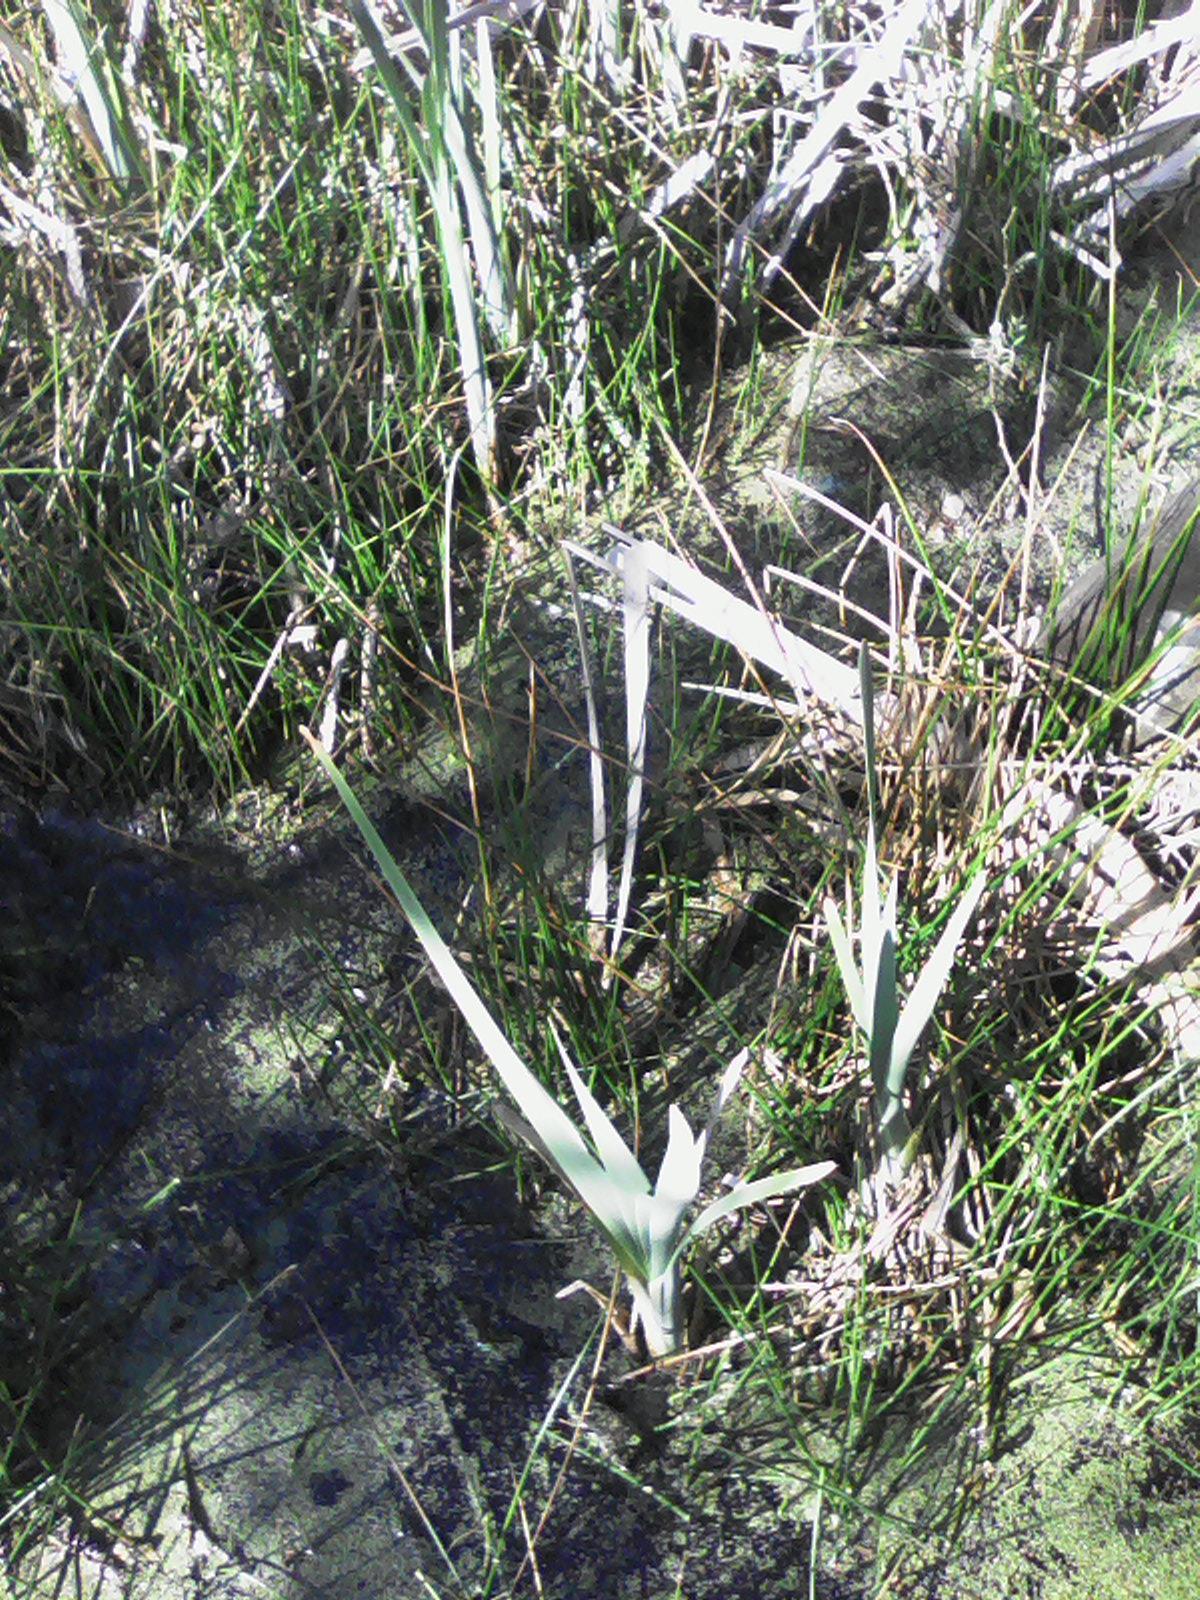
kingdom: Plantae
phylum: Tracheophyta
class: Liliopsida
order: Poales
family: Typhaceae
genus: Typha
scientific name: Typha latifolia
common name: Broadleaf cattail
